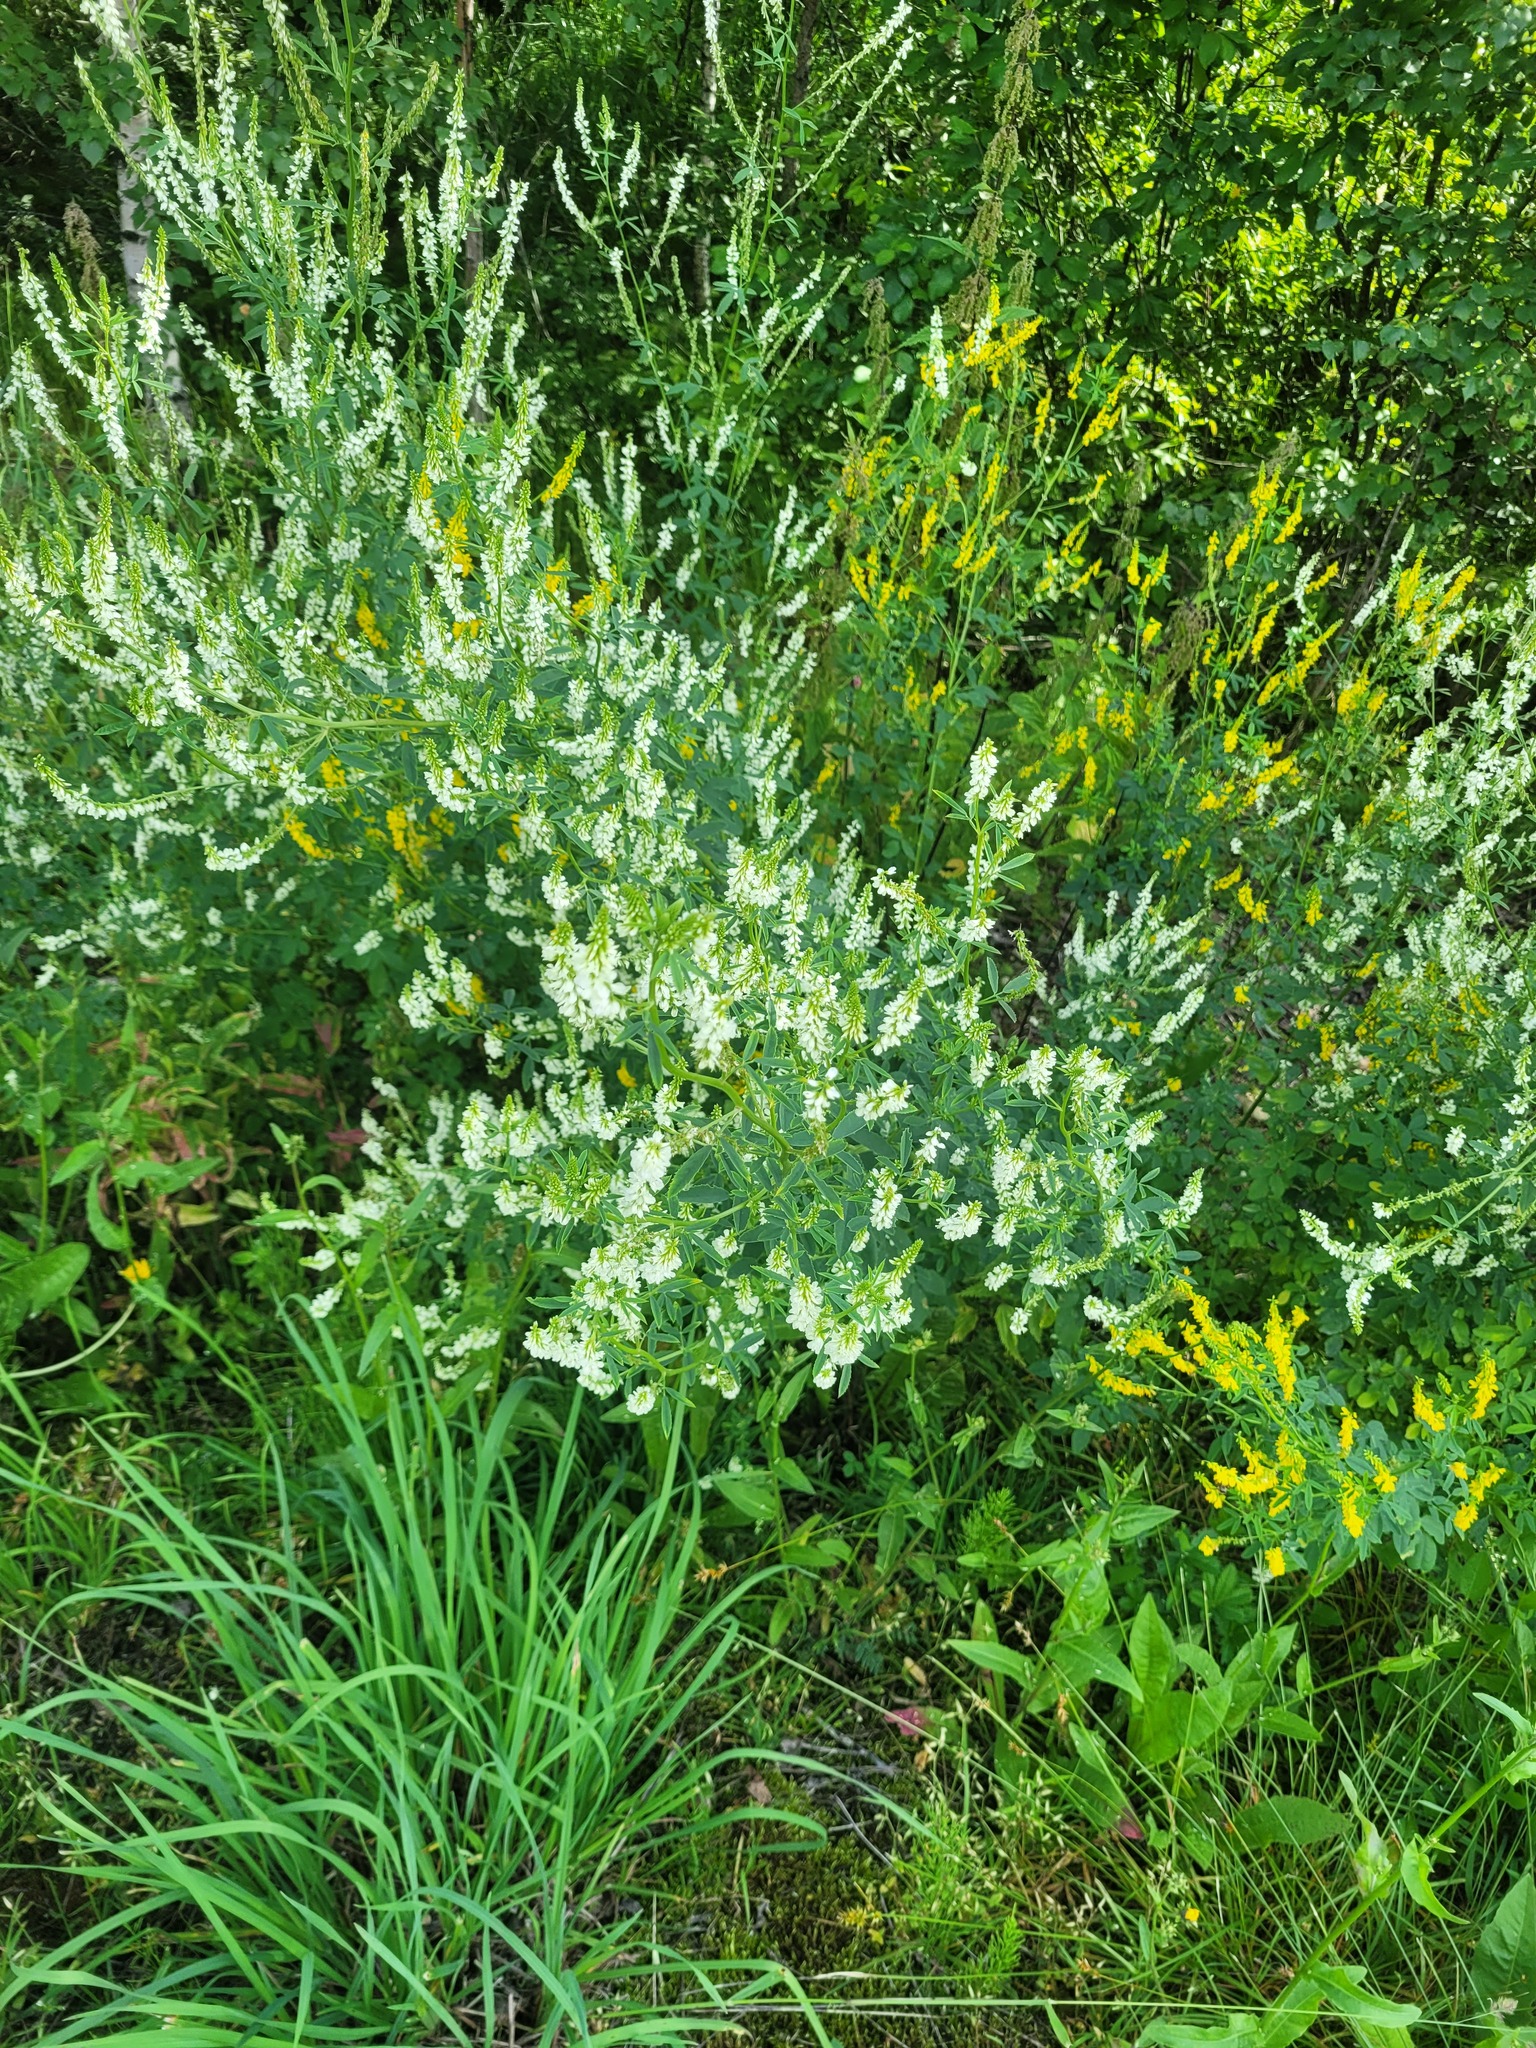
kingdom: Plantae
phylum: Tracheophyta
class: Magnoliopsida
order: Fabales
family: Fabaceae
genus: Melilotus
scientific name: Melilotus albus
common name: White melilot
